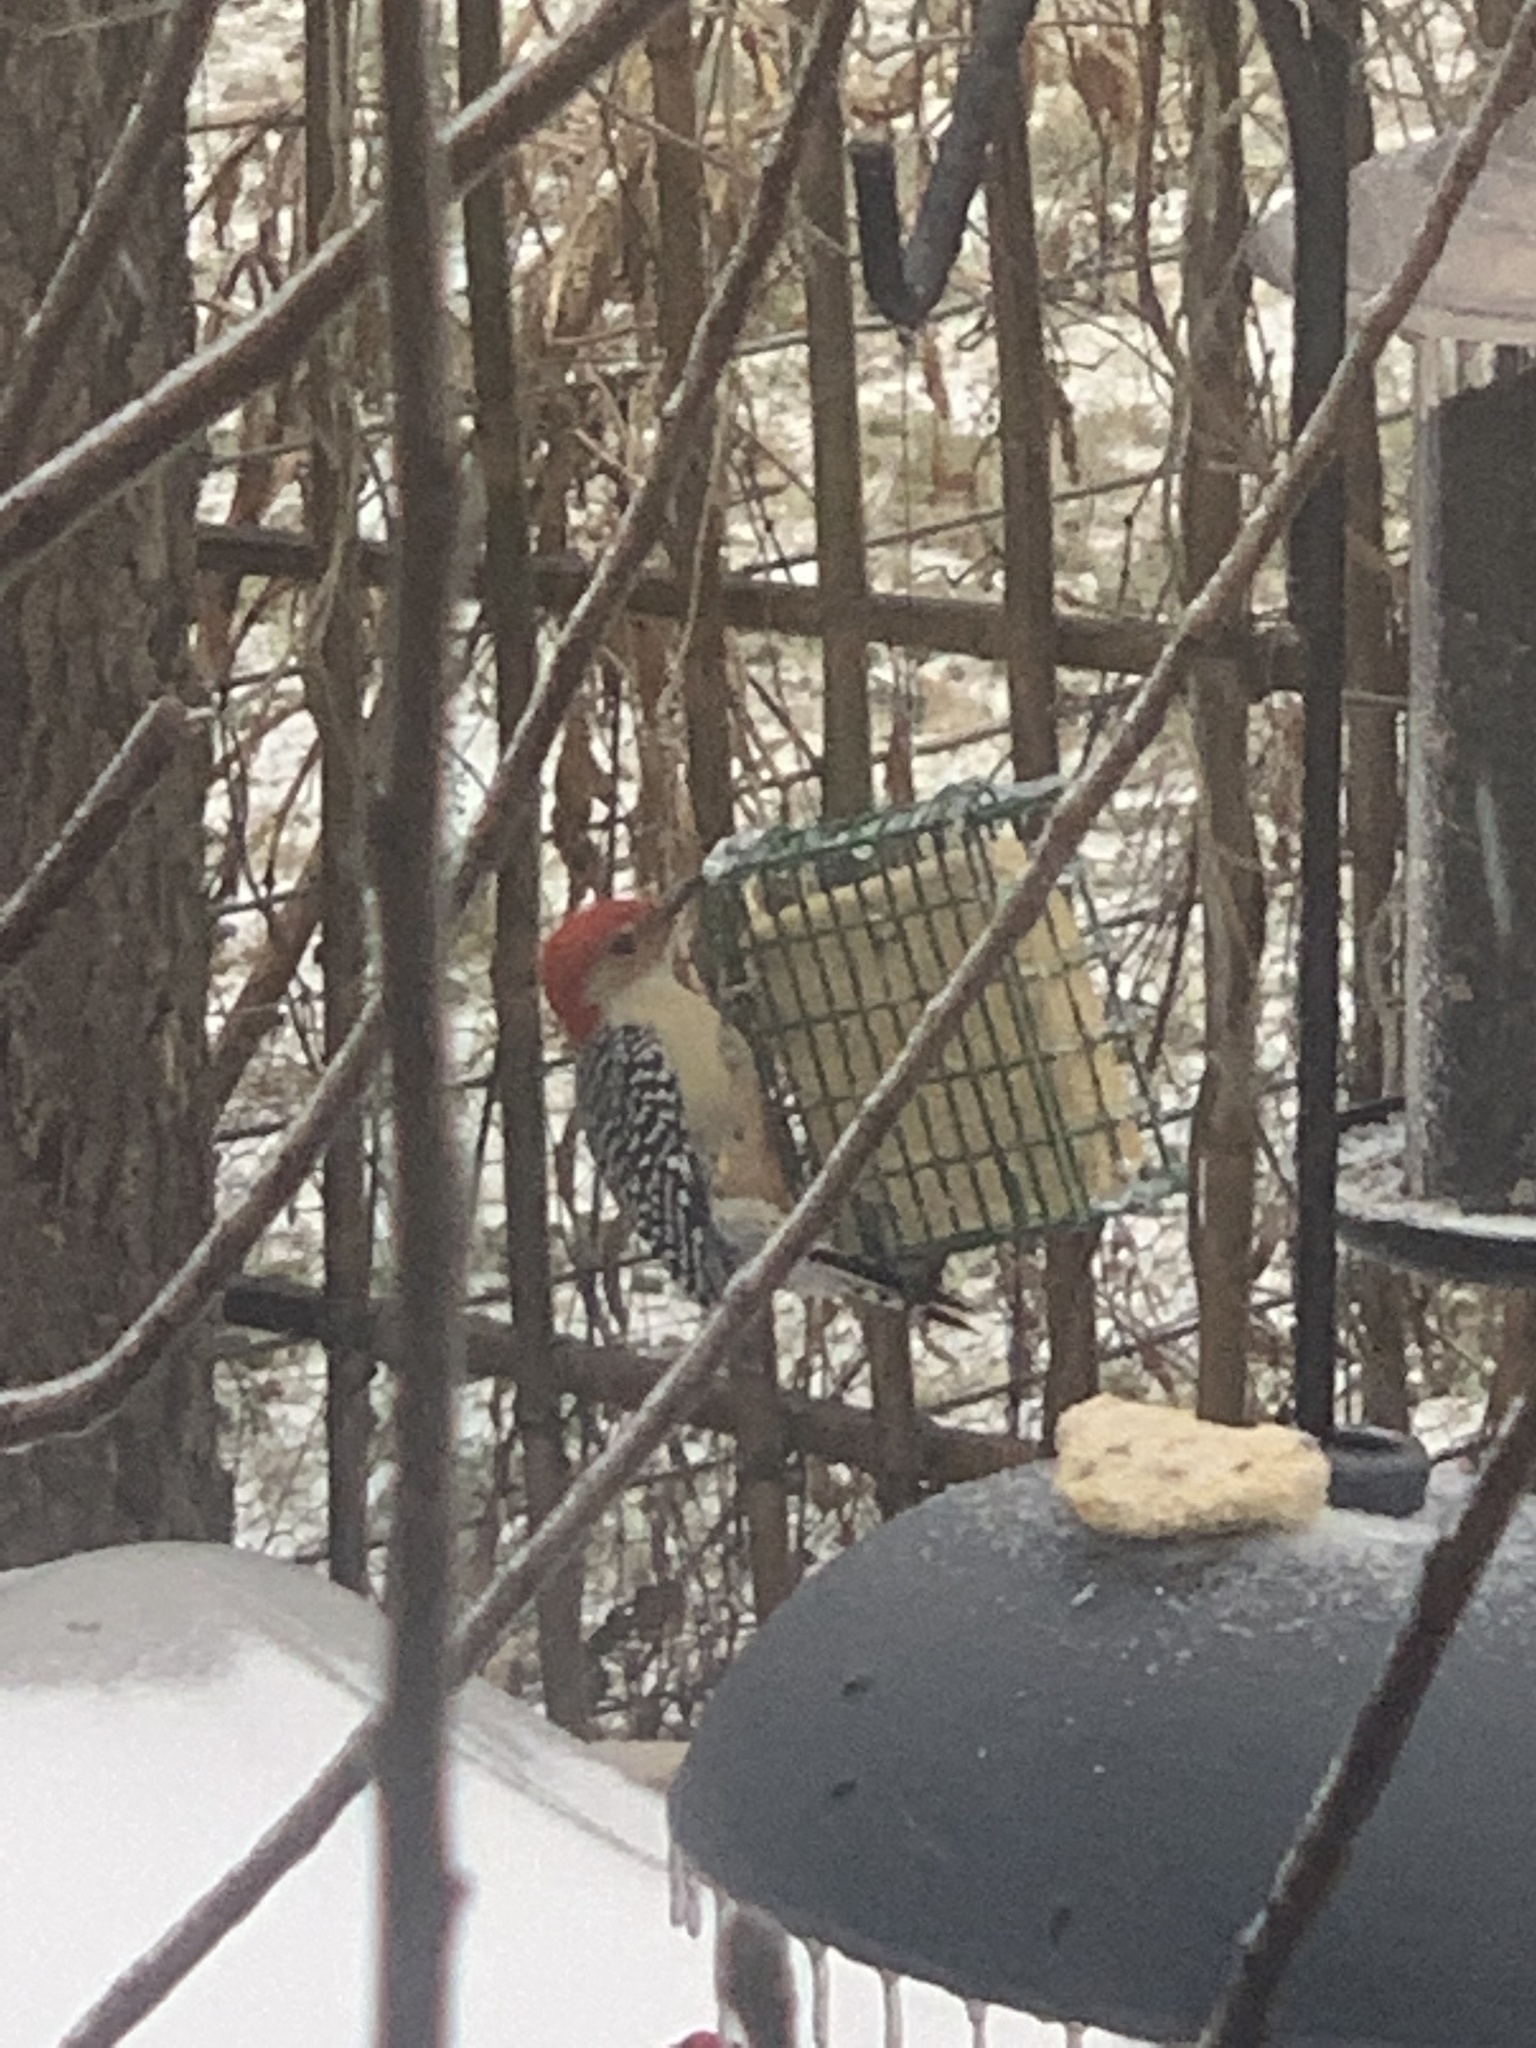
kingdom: Animalia
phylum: Chordata
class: Aves
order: Piciformes
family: Picidae
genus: Melanerpes
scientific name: Melanerpes carolinus
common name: Red-bellied woodpecker
